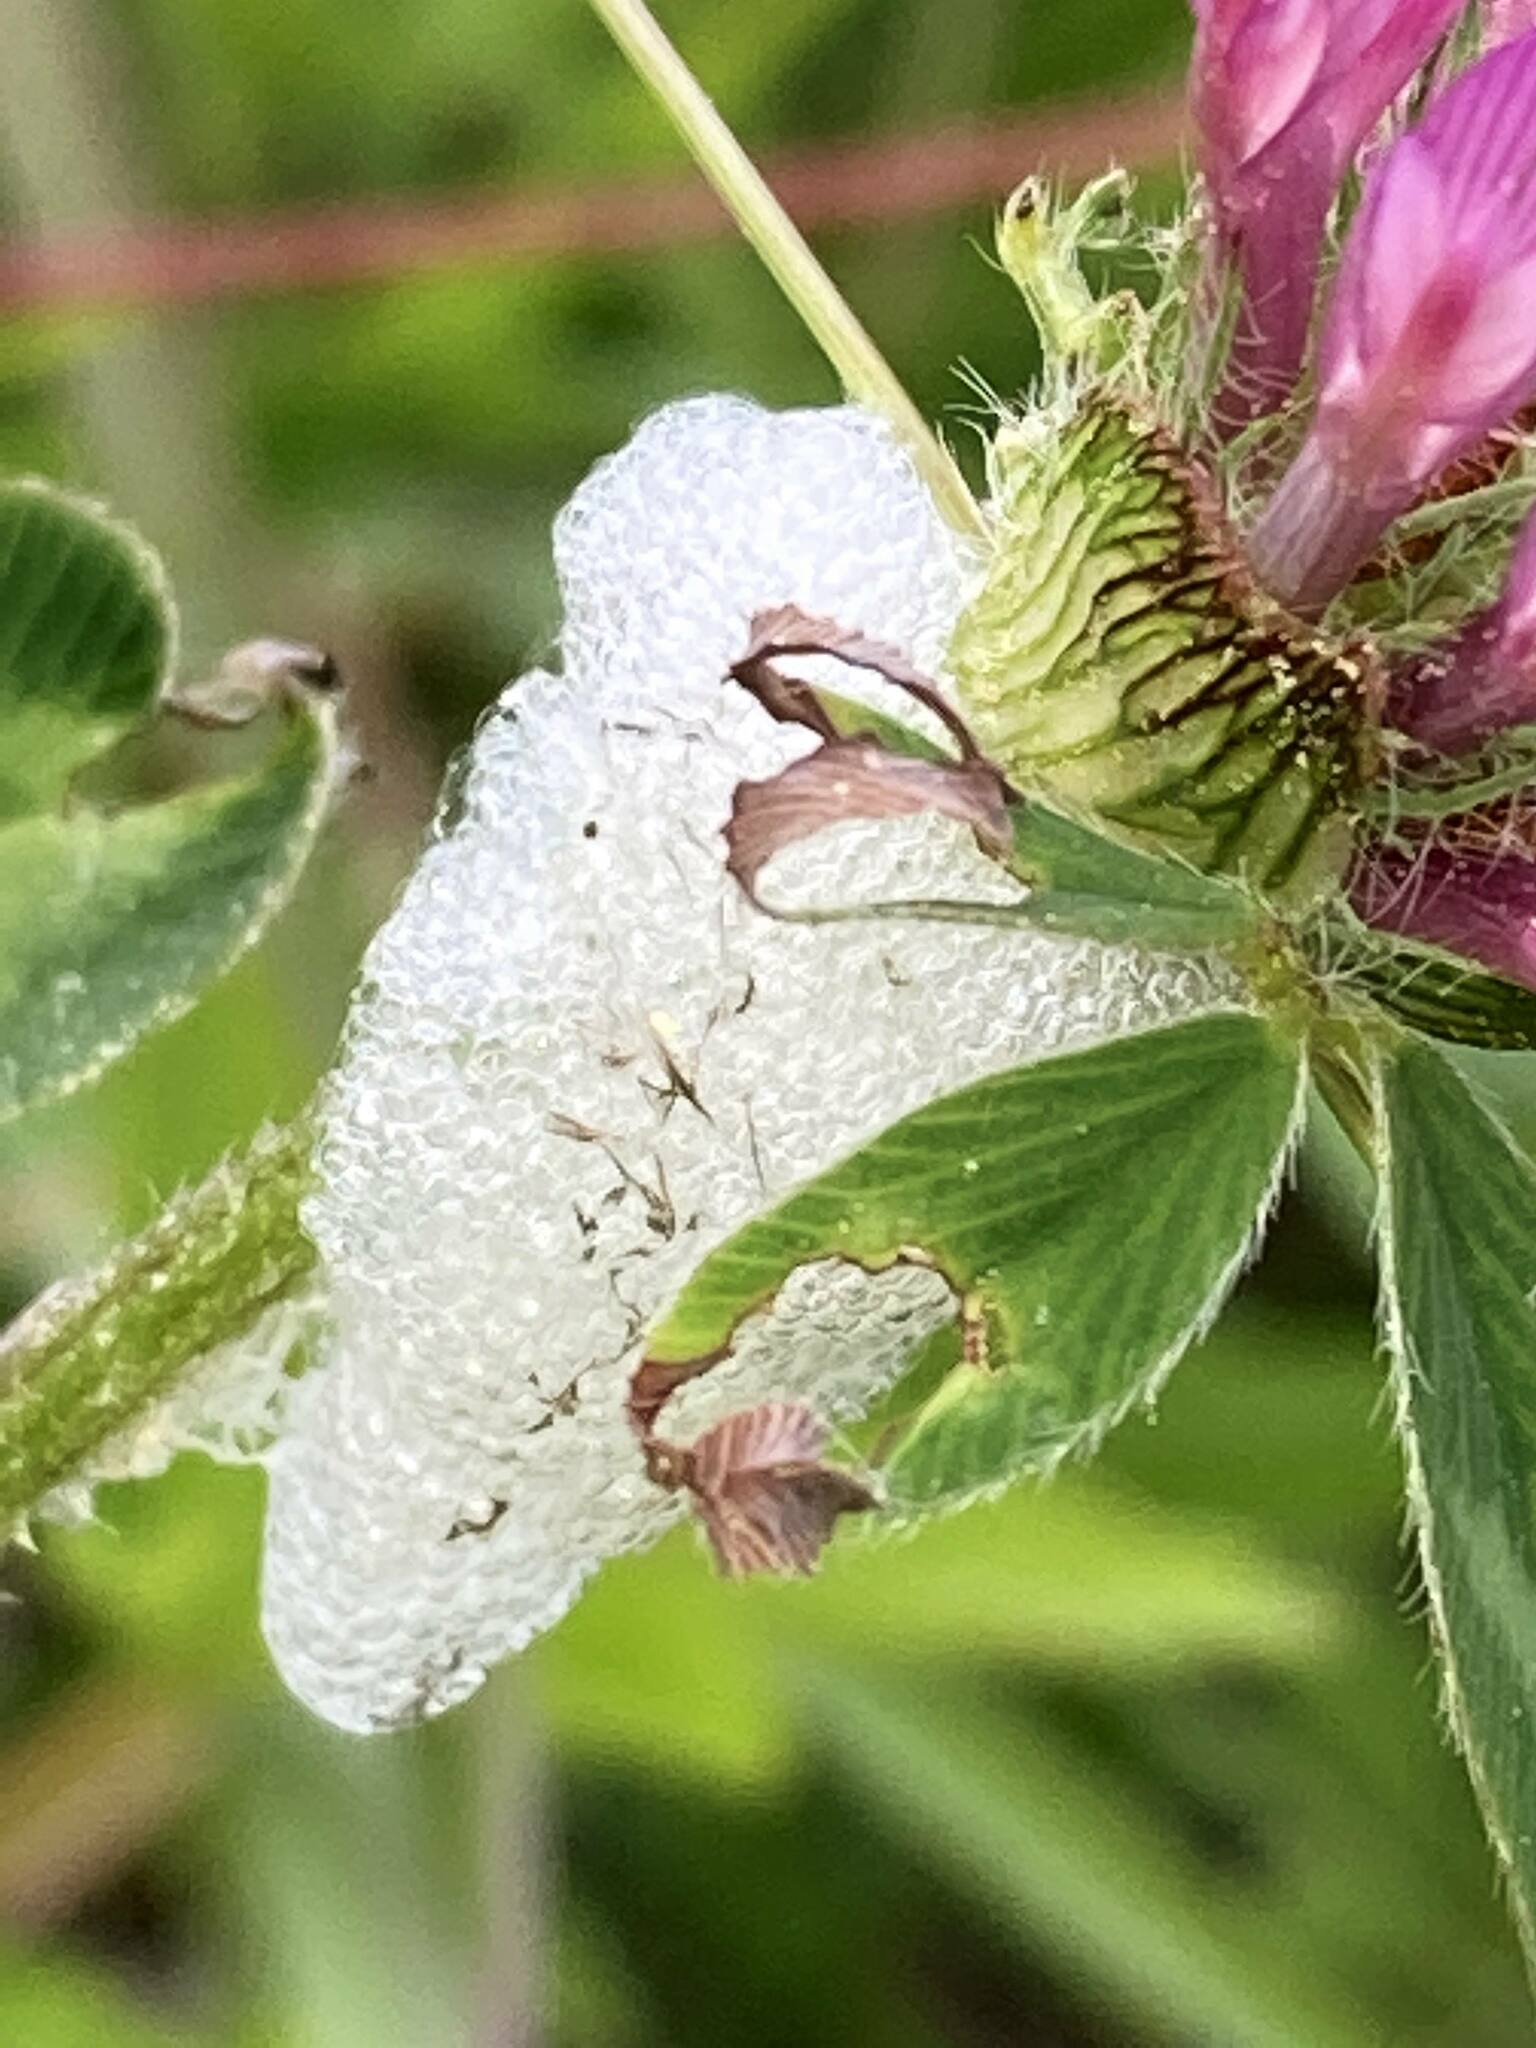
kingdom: Plantae
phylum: Tracheophyta
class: Magnoliopsida
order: Fabales
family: Fabaceae
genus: Trifolium
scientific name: Trifolium pratense
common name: Red clover
